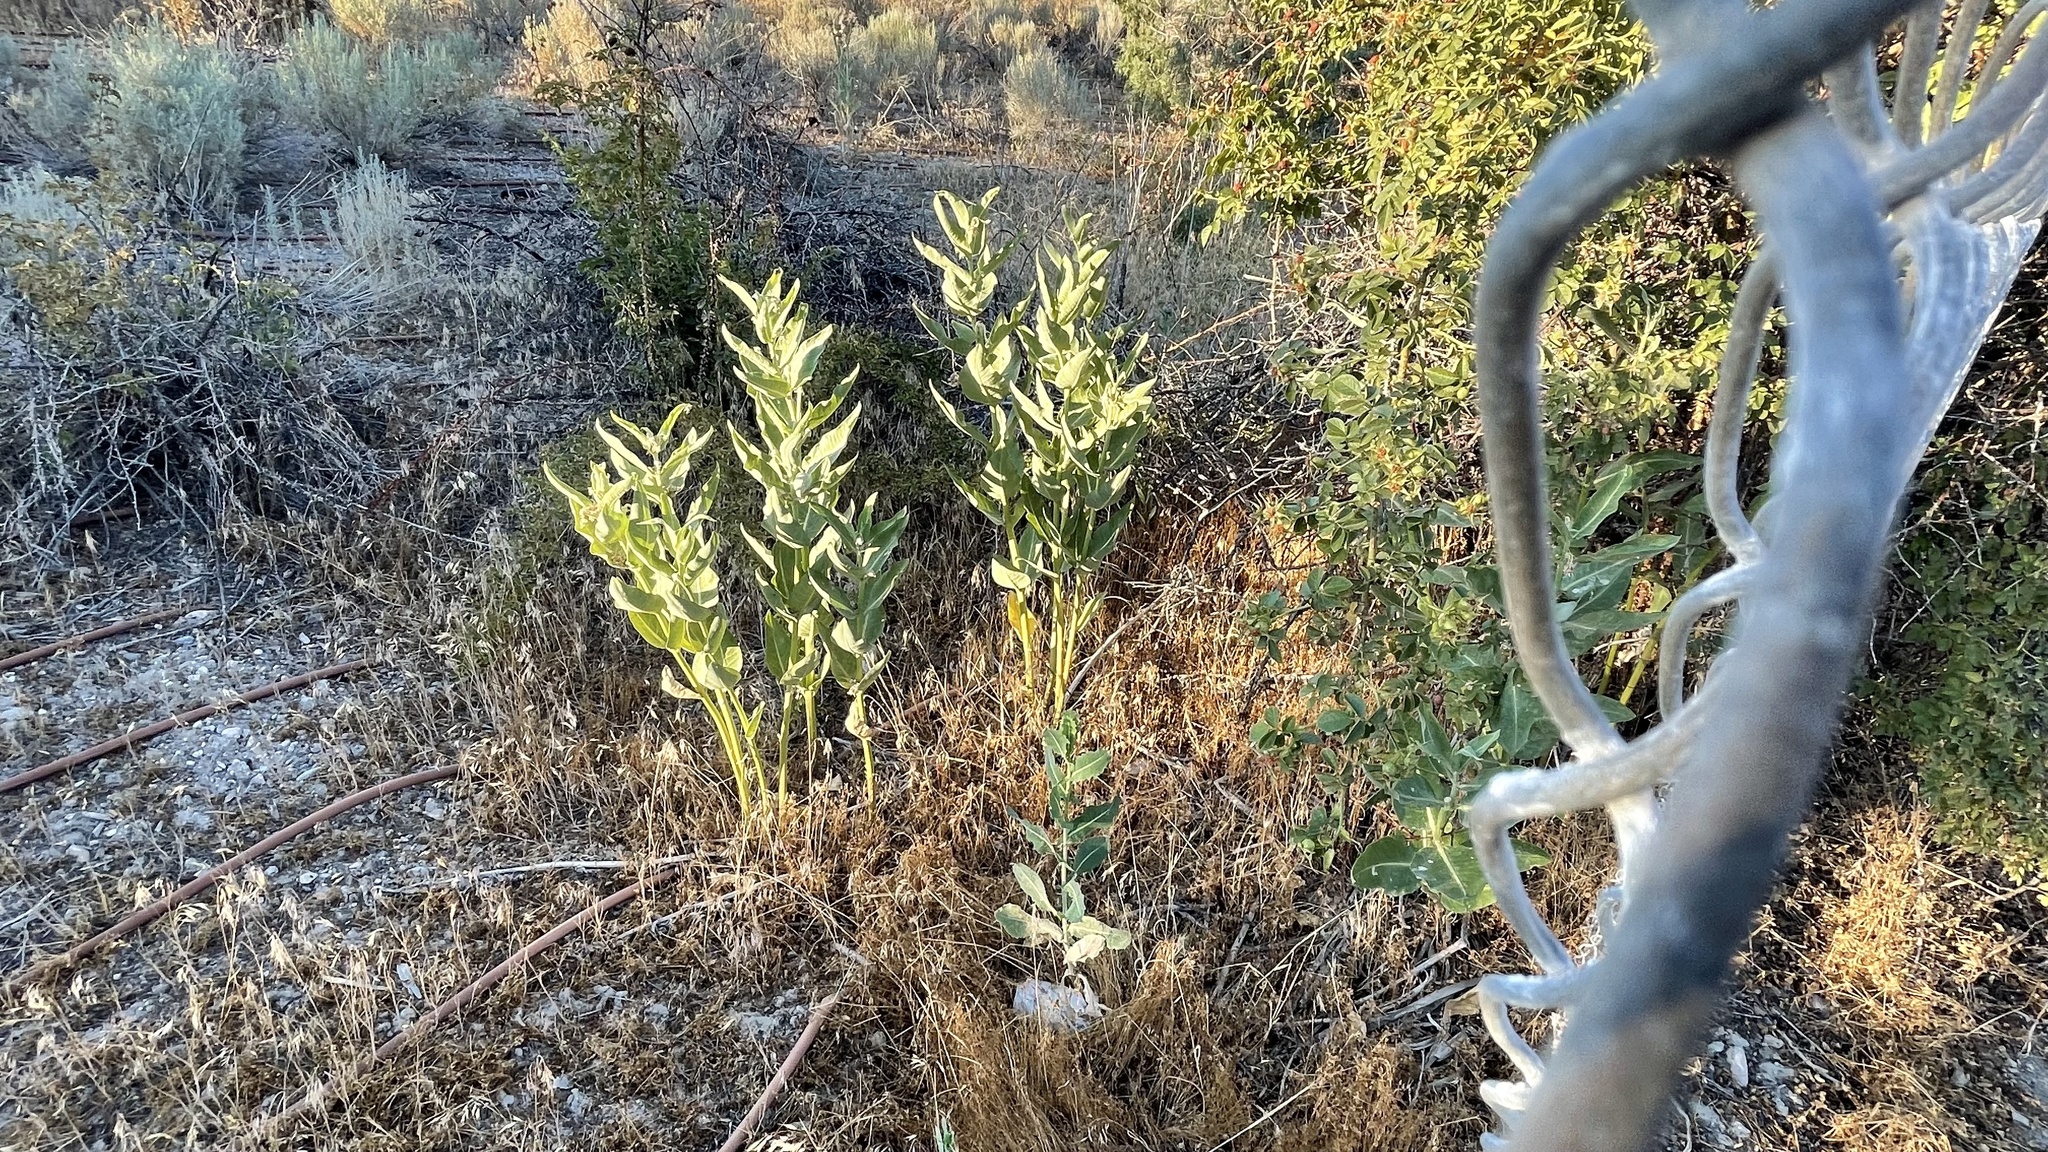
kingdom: Plantae
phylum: Tracheophyta
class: Magnoliopsida
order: Gentianales
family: Apocynaceae
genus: Asclepias
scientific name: Asclepias speciosa
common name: Showy milkweed
